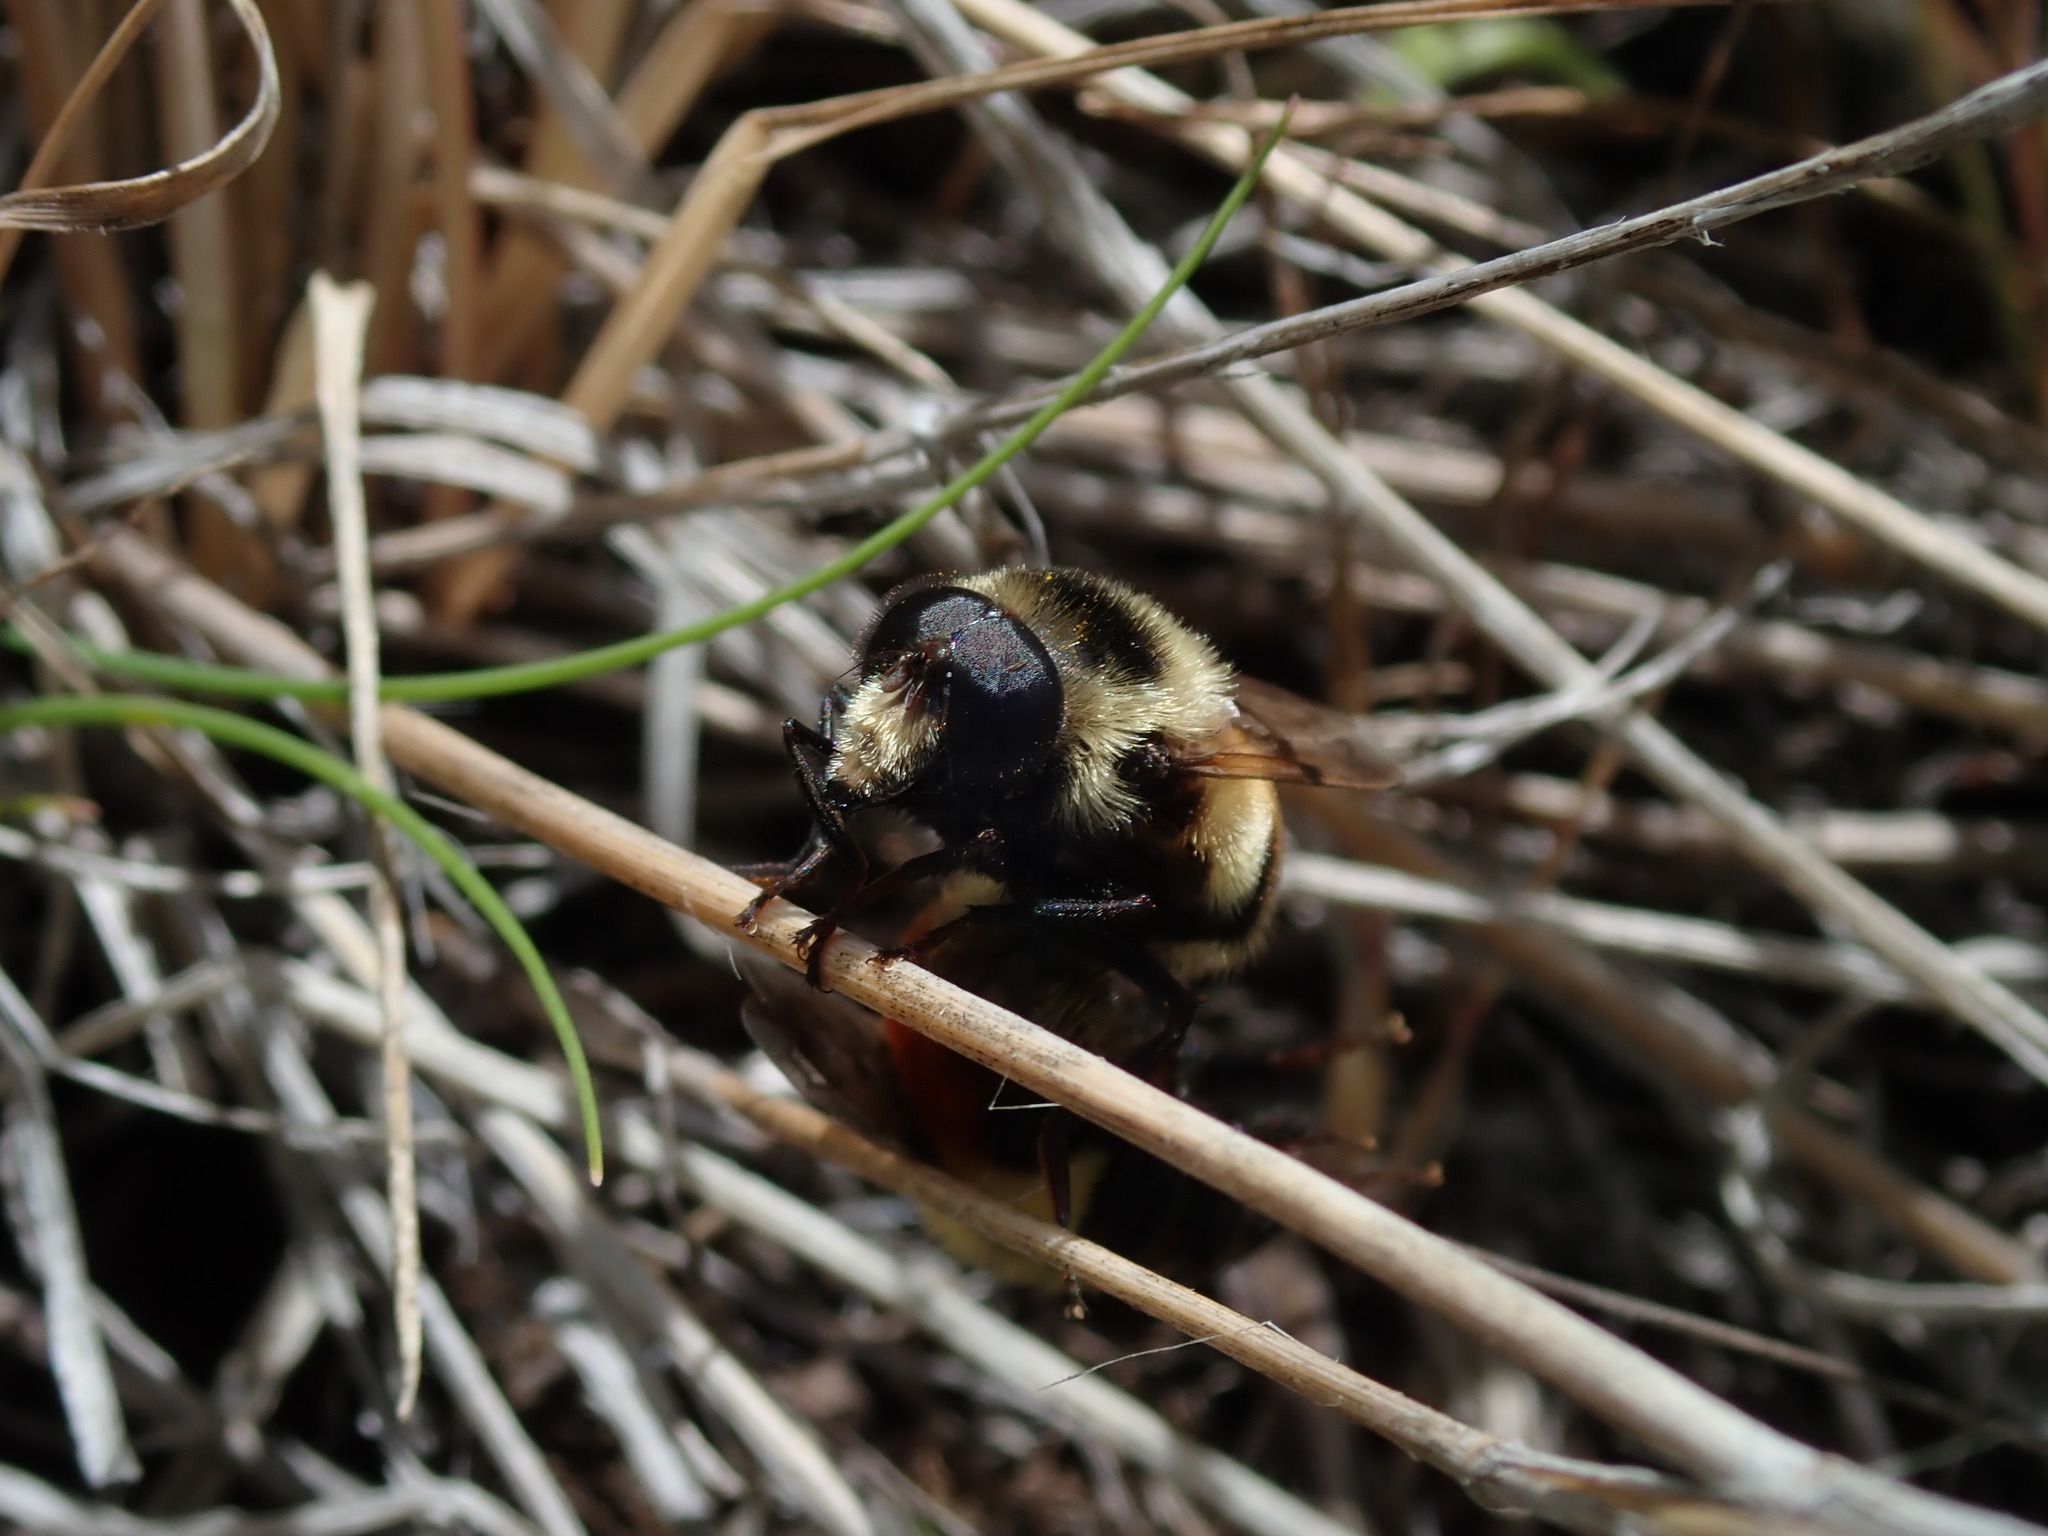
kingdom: Animalia
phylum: Arthropoda
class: Insecta
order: Diptera
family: Syrphidae
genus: Volucella
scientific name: Volucella facialis
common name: Yellow-faced swiftwing
